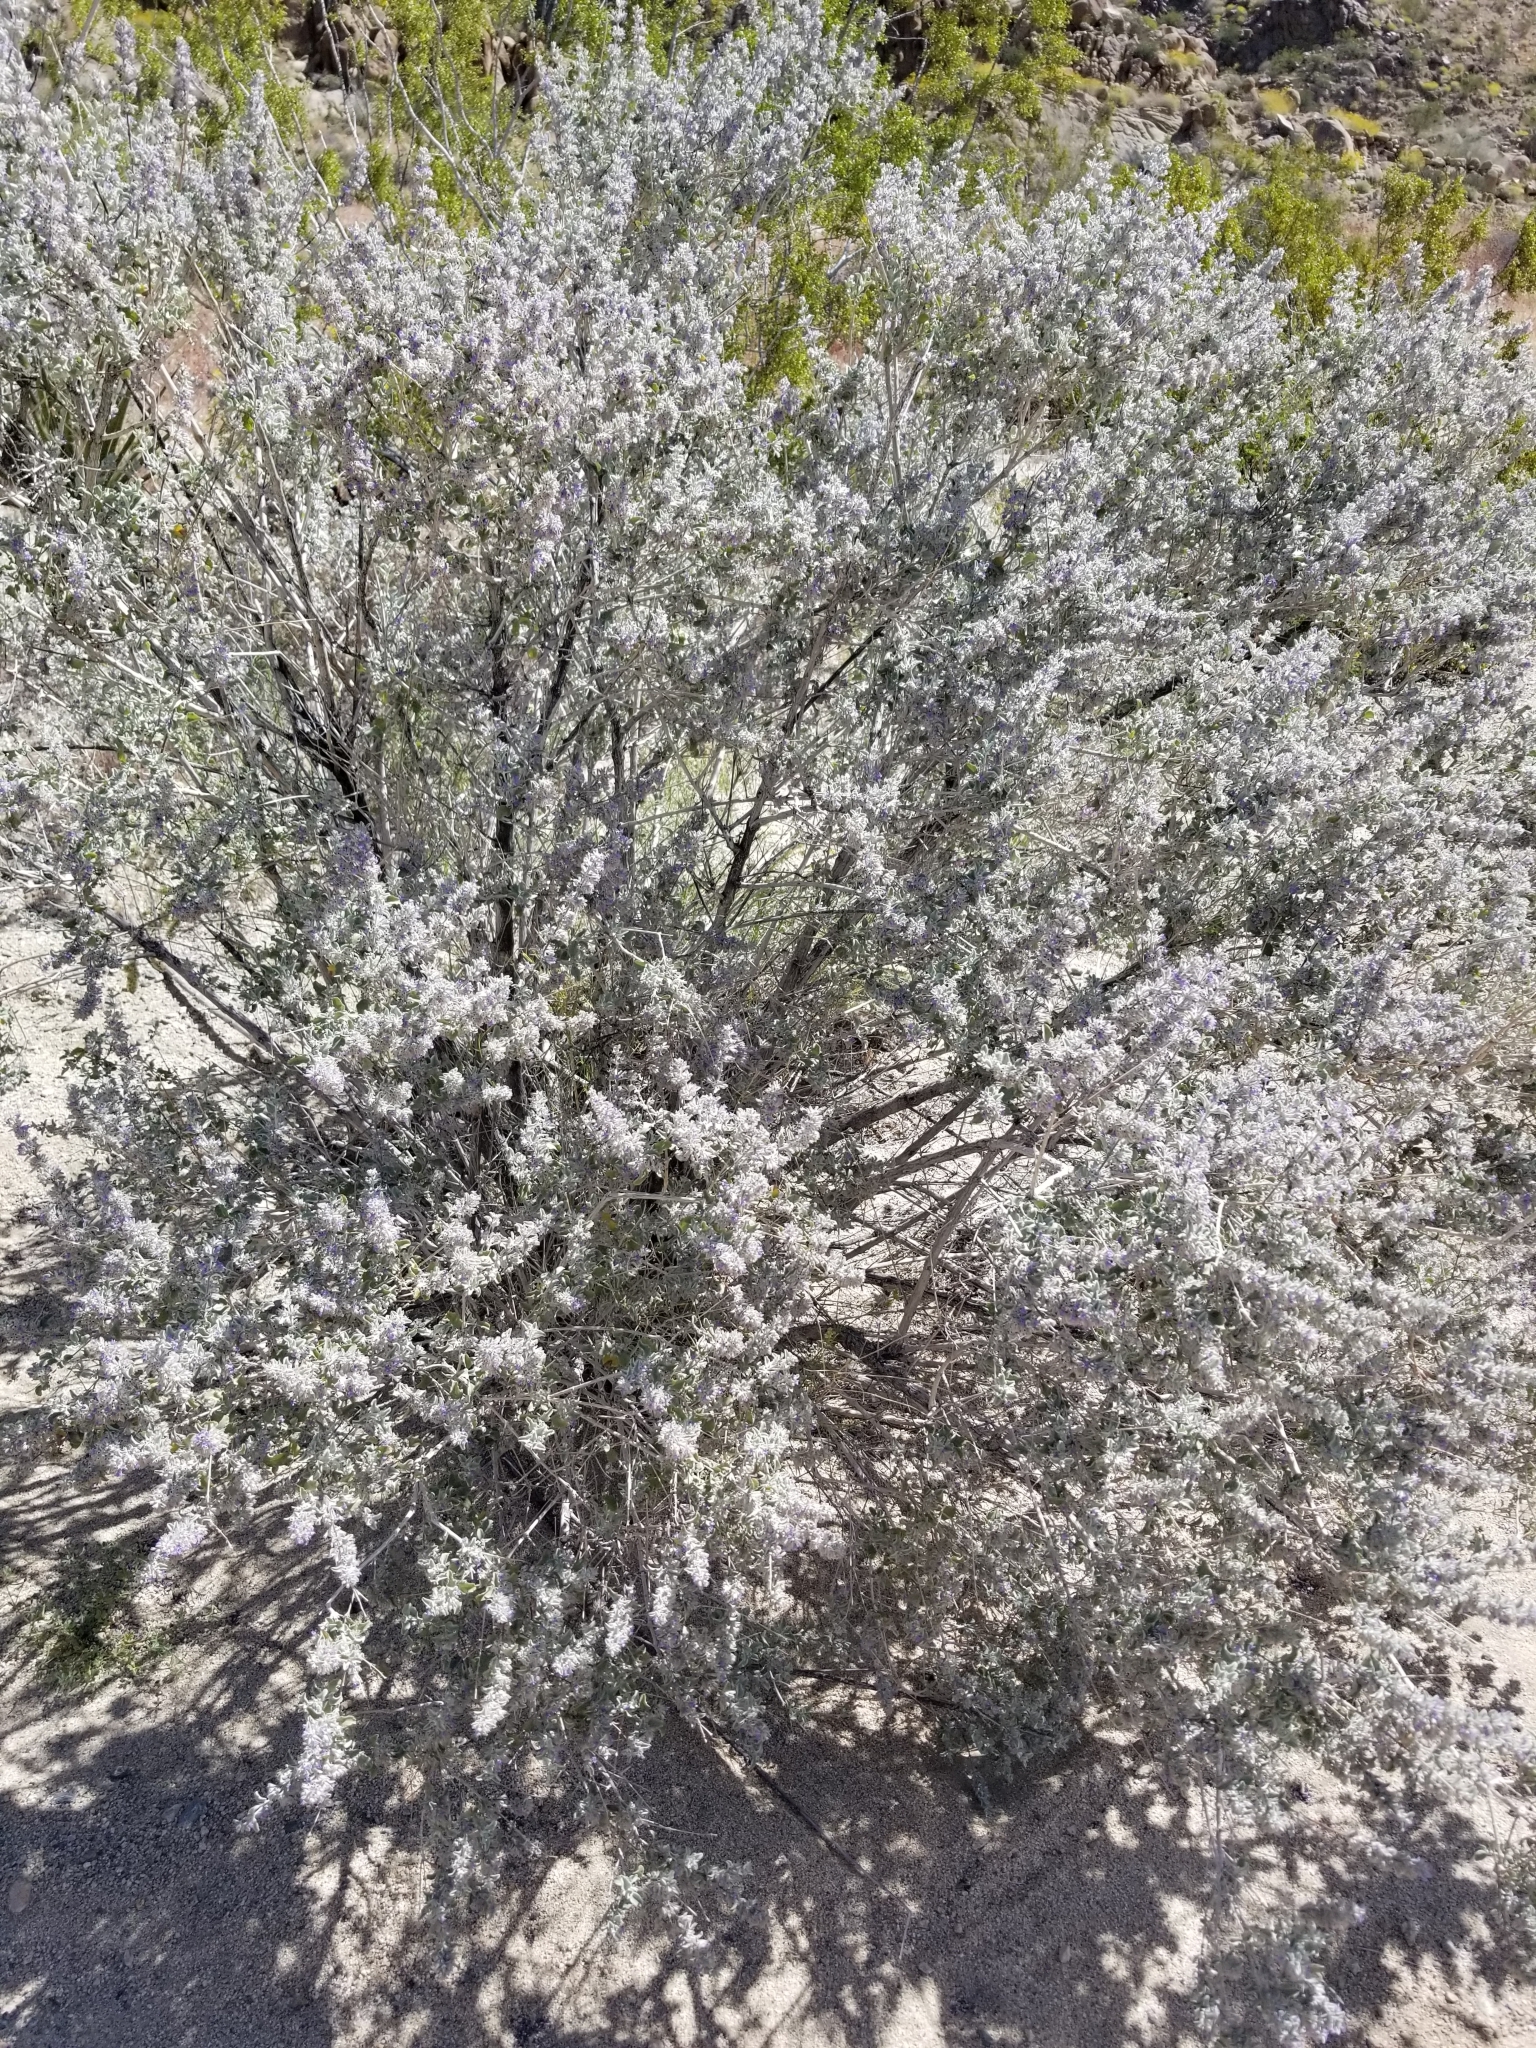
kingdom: Plantae
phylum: Tracheophyta
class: Magnoliopsida
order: Lamiales
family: Lamiaceae
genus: Condea
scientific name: Condea emoryi
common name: Chia
